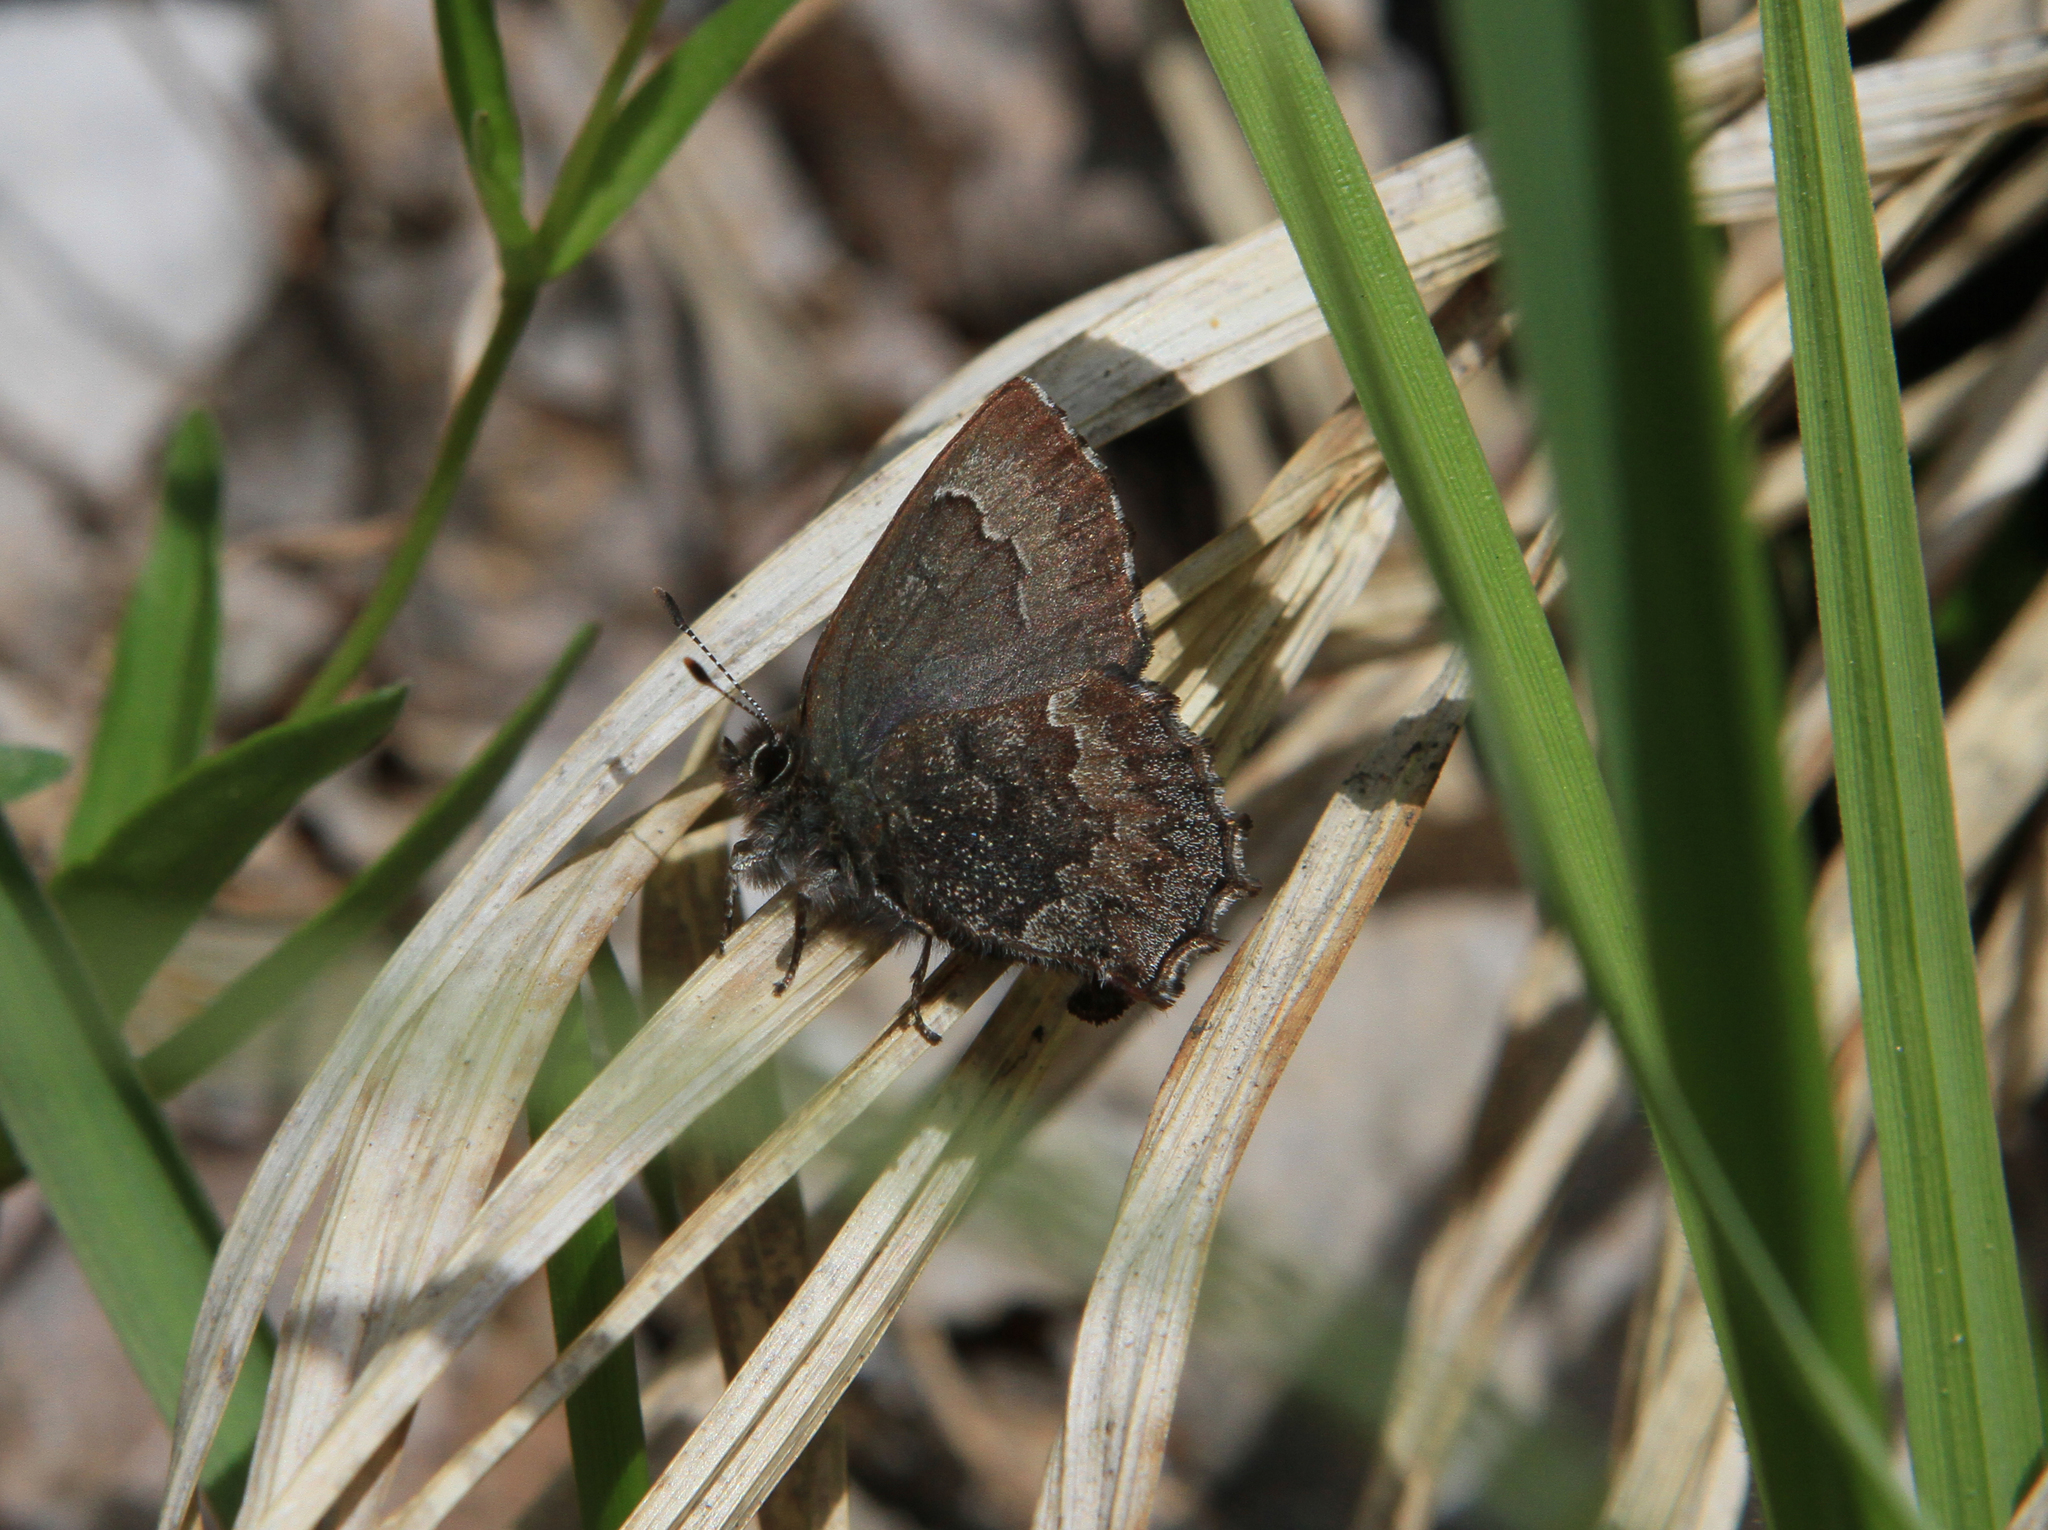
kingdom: Animalia
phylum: Arthropoda
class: Insecta
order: Lepidoptera
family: Lycaenidae
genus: Ginzia
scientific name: Ginzia Ahlbergia frivaldszkyi
